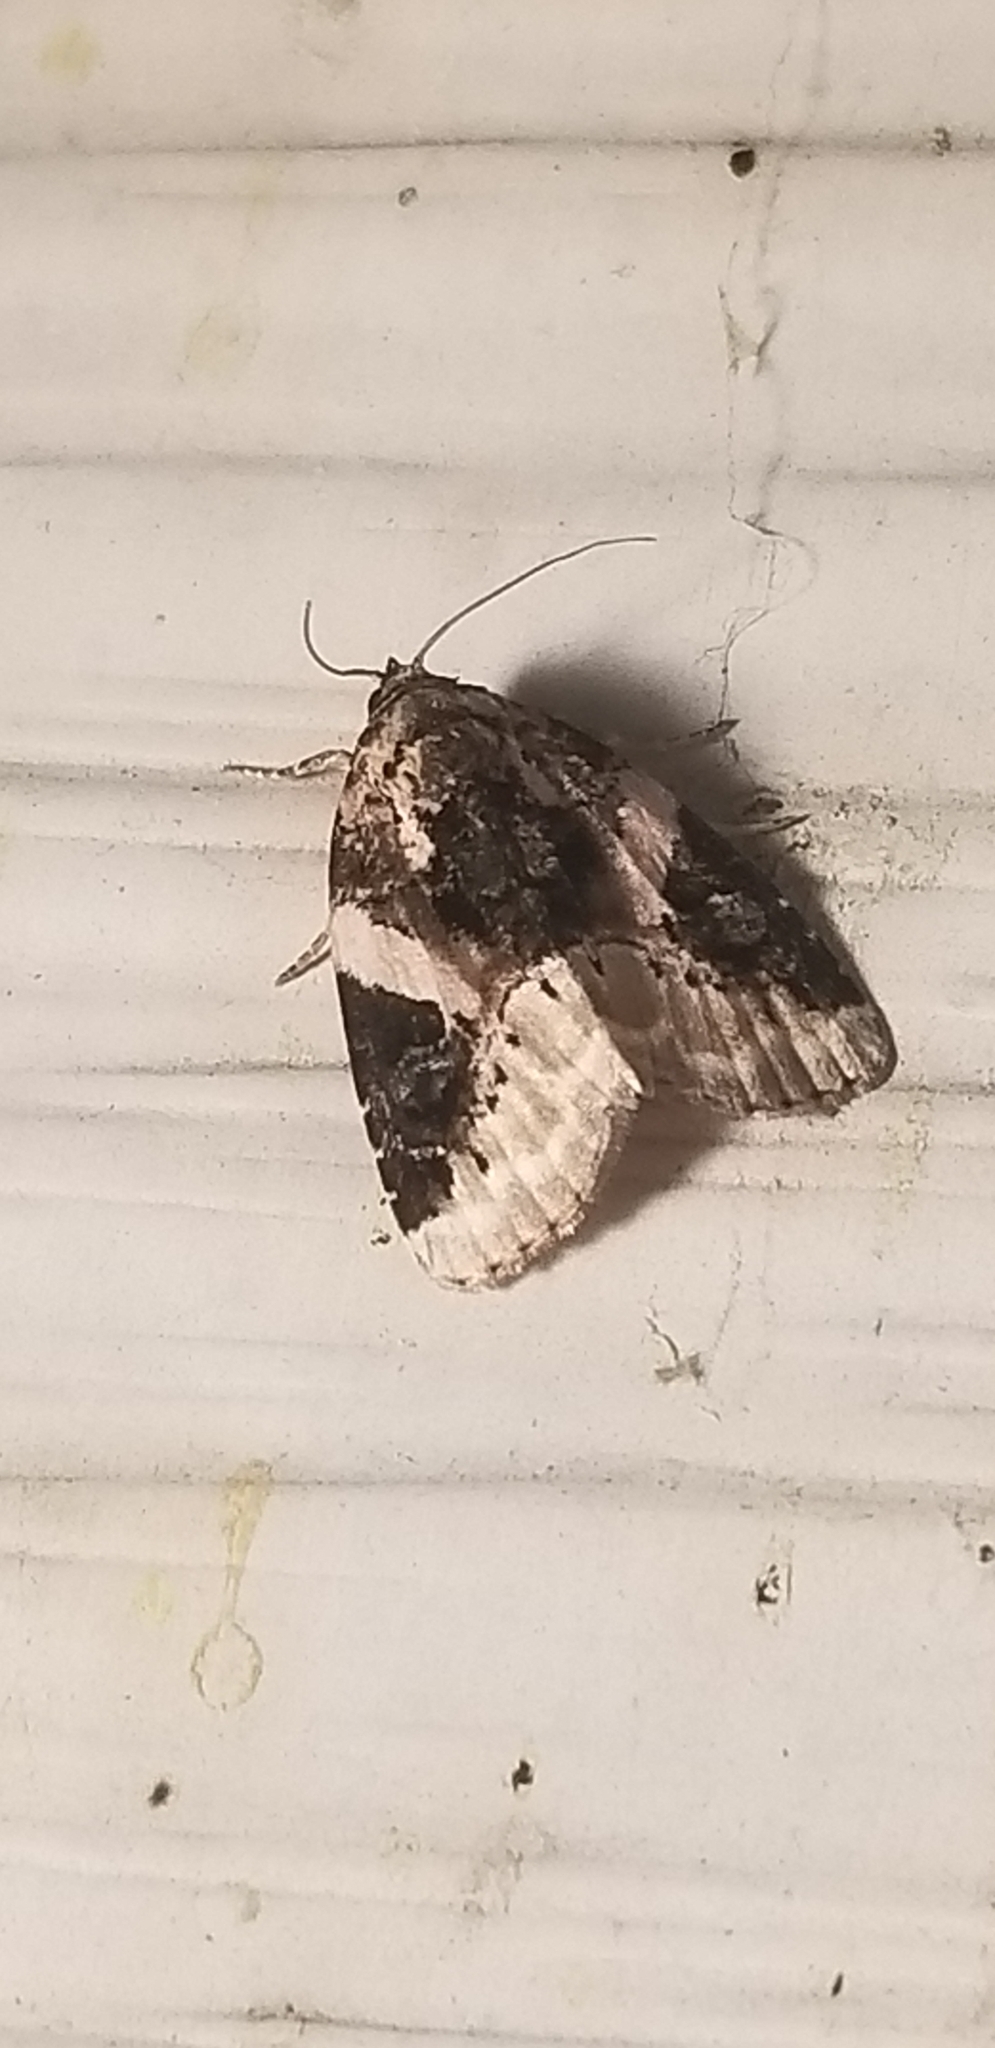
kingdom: Animalia
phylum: Arthropoda
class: Insecta
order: Lepidoptera
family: Noctuidae
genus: Pseudeustrotia
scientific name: Pseudeustrotia carneola
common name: Pink-barred lithacodia moth
